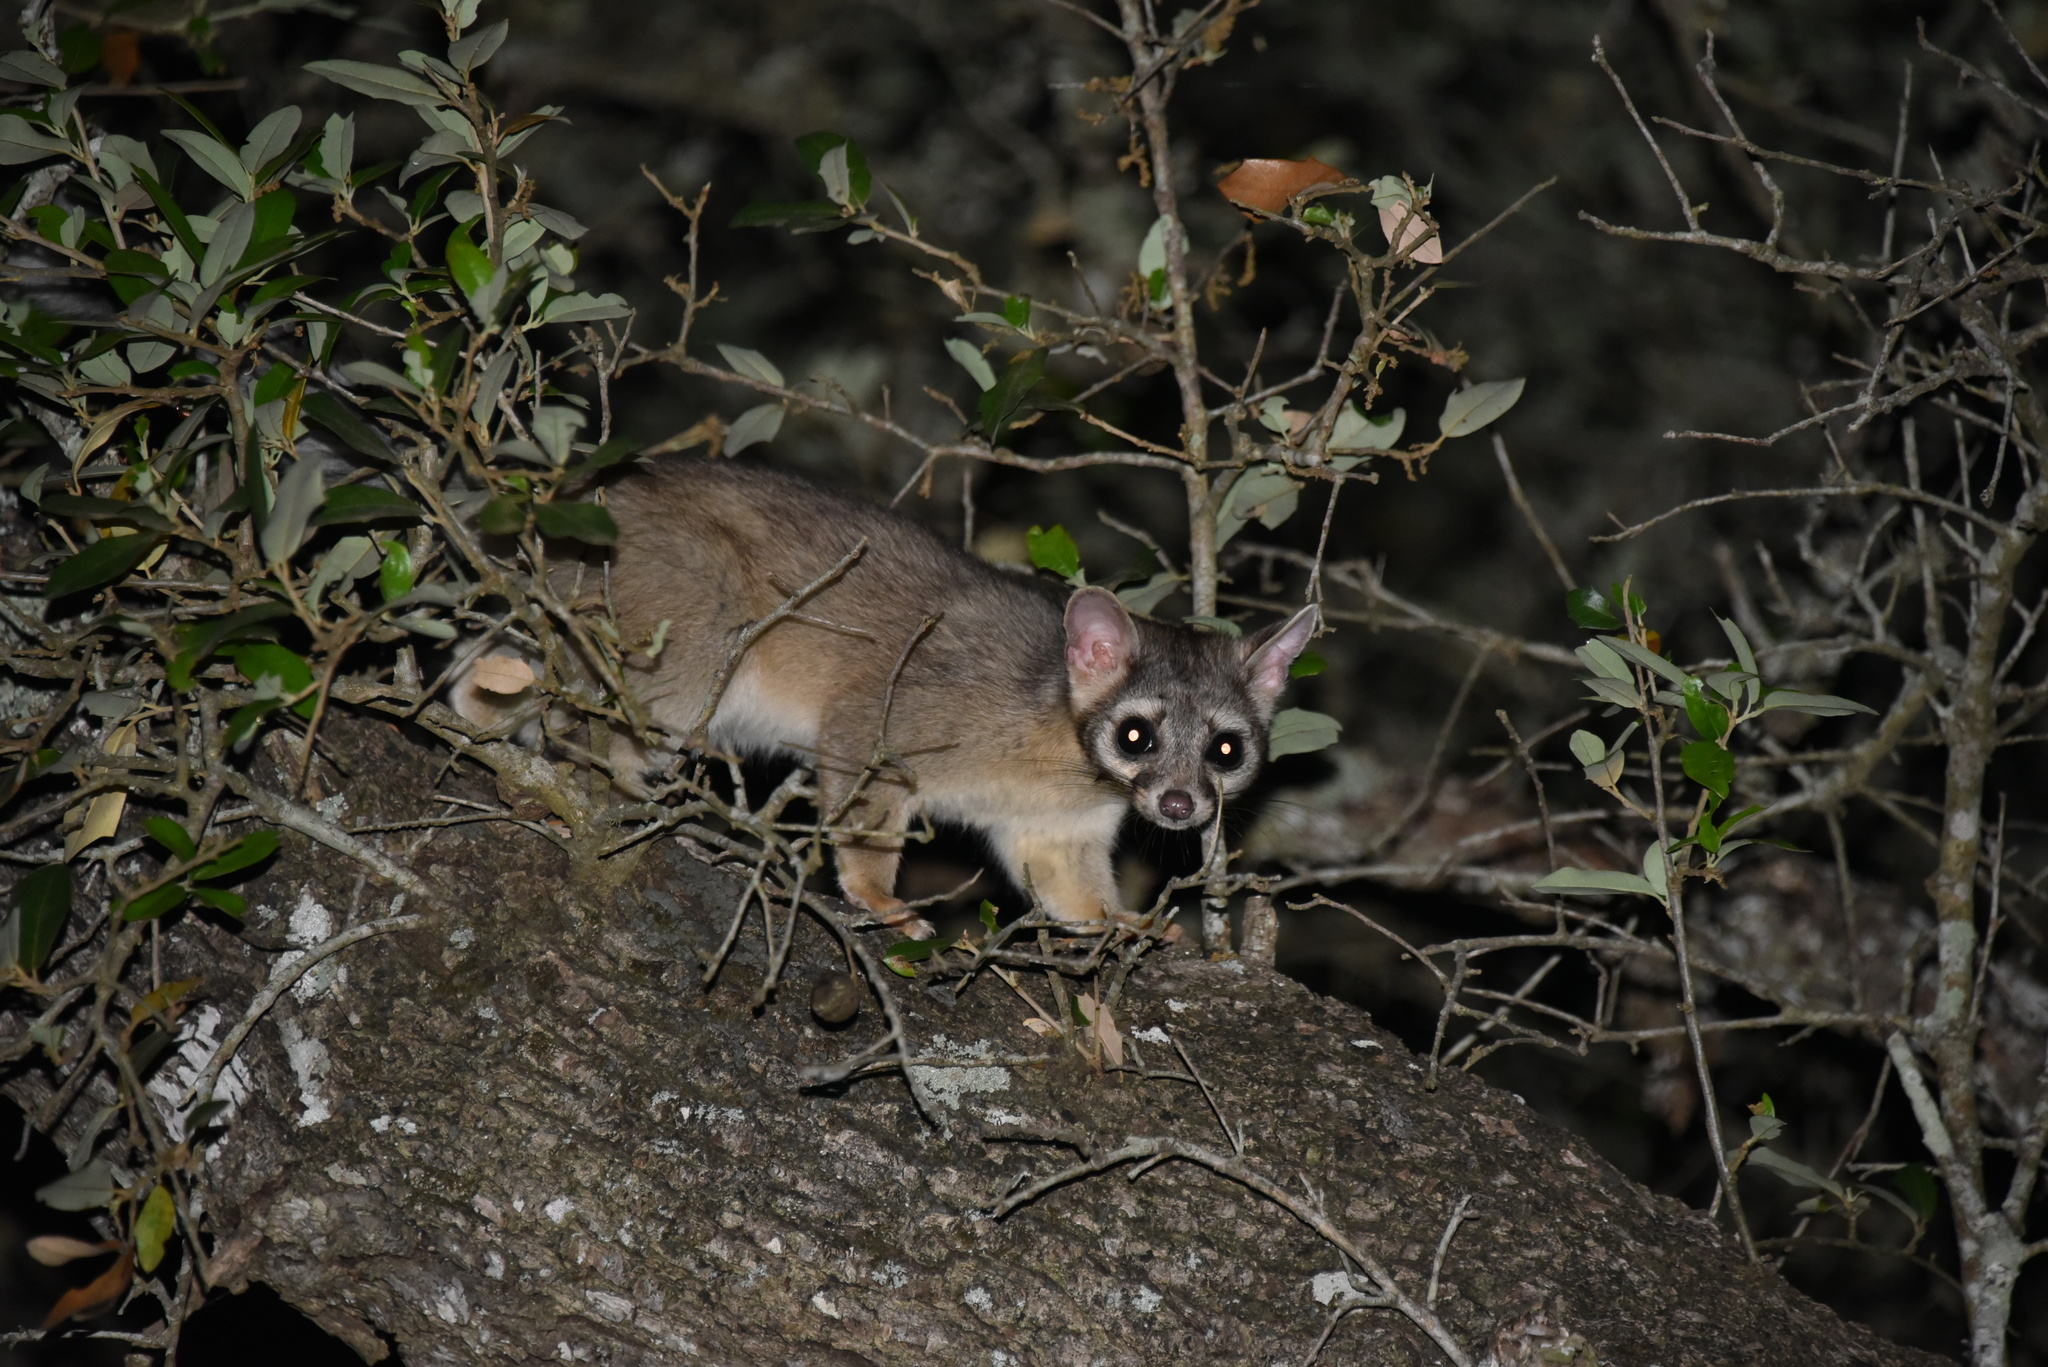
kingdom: Animalia
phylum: Chordata
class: Mammalia
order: Carnivora
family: Procyonidae
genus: Bassariscus
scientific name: Bassariscus astutus
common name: Ringtail
